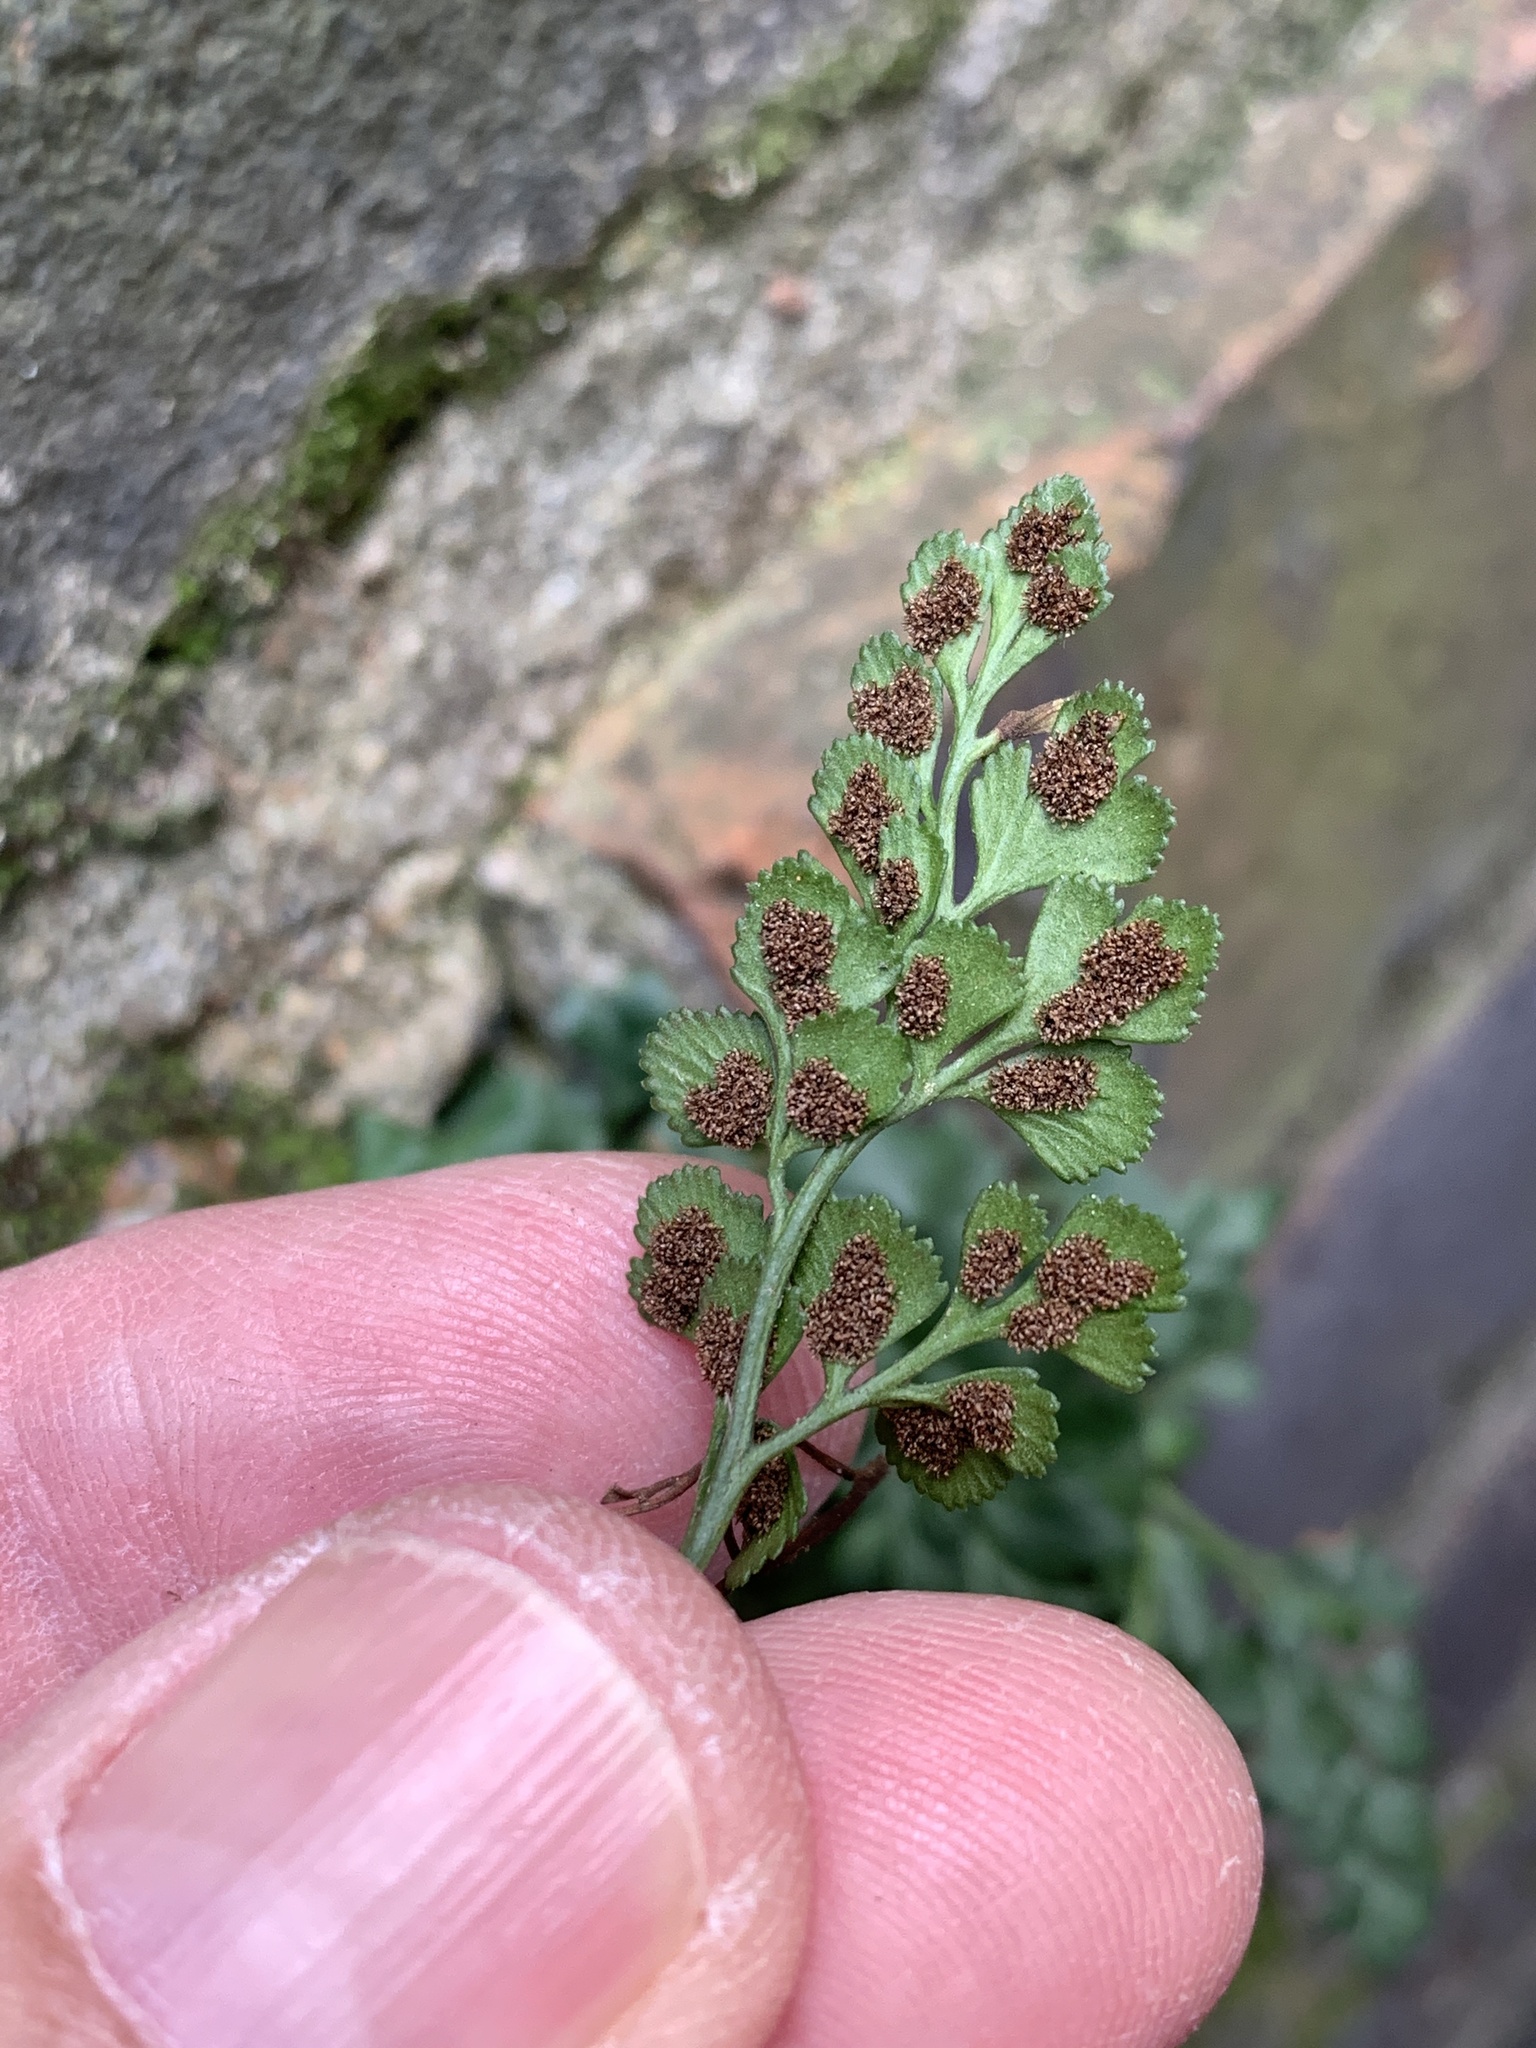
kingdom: Plantae
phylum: Tracheophyta
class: Polypodiopsida
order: Polypodiales
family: Aspleniaceae
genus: Asplenium
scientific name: Asplenium ruta-muraria
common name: Wall-rue
